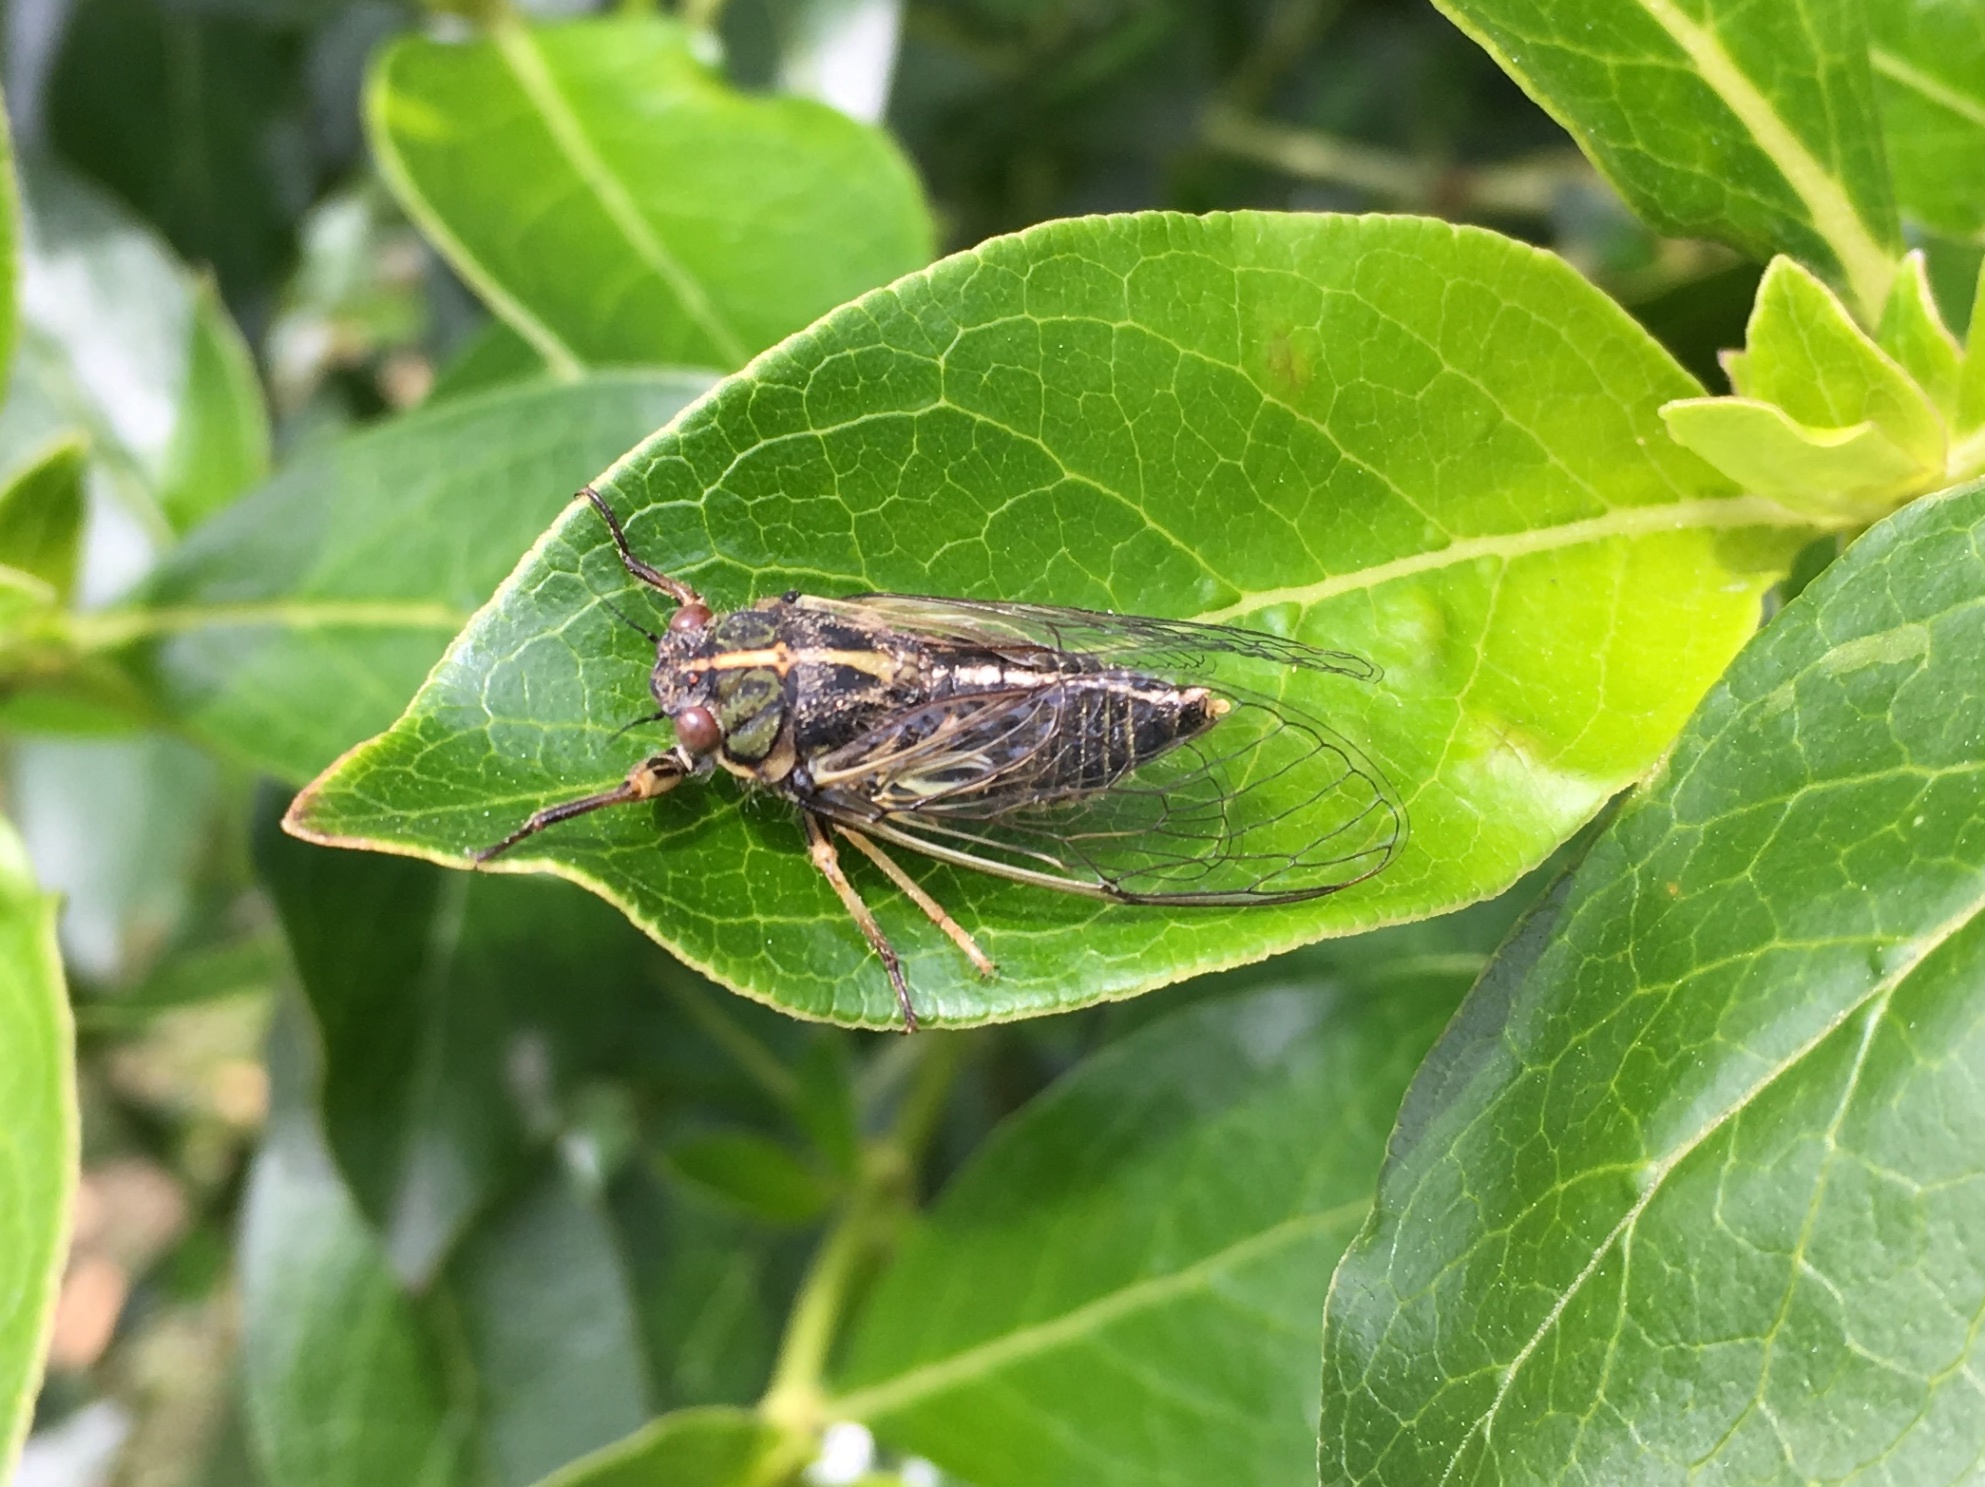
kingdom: Animalia
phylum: Arthropoda
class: Insecta
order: Hemiptera
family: Cicadidae
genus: Kikihia
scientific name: Kikihia angusta
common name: Tussock cicada
